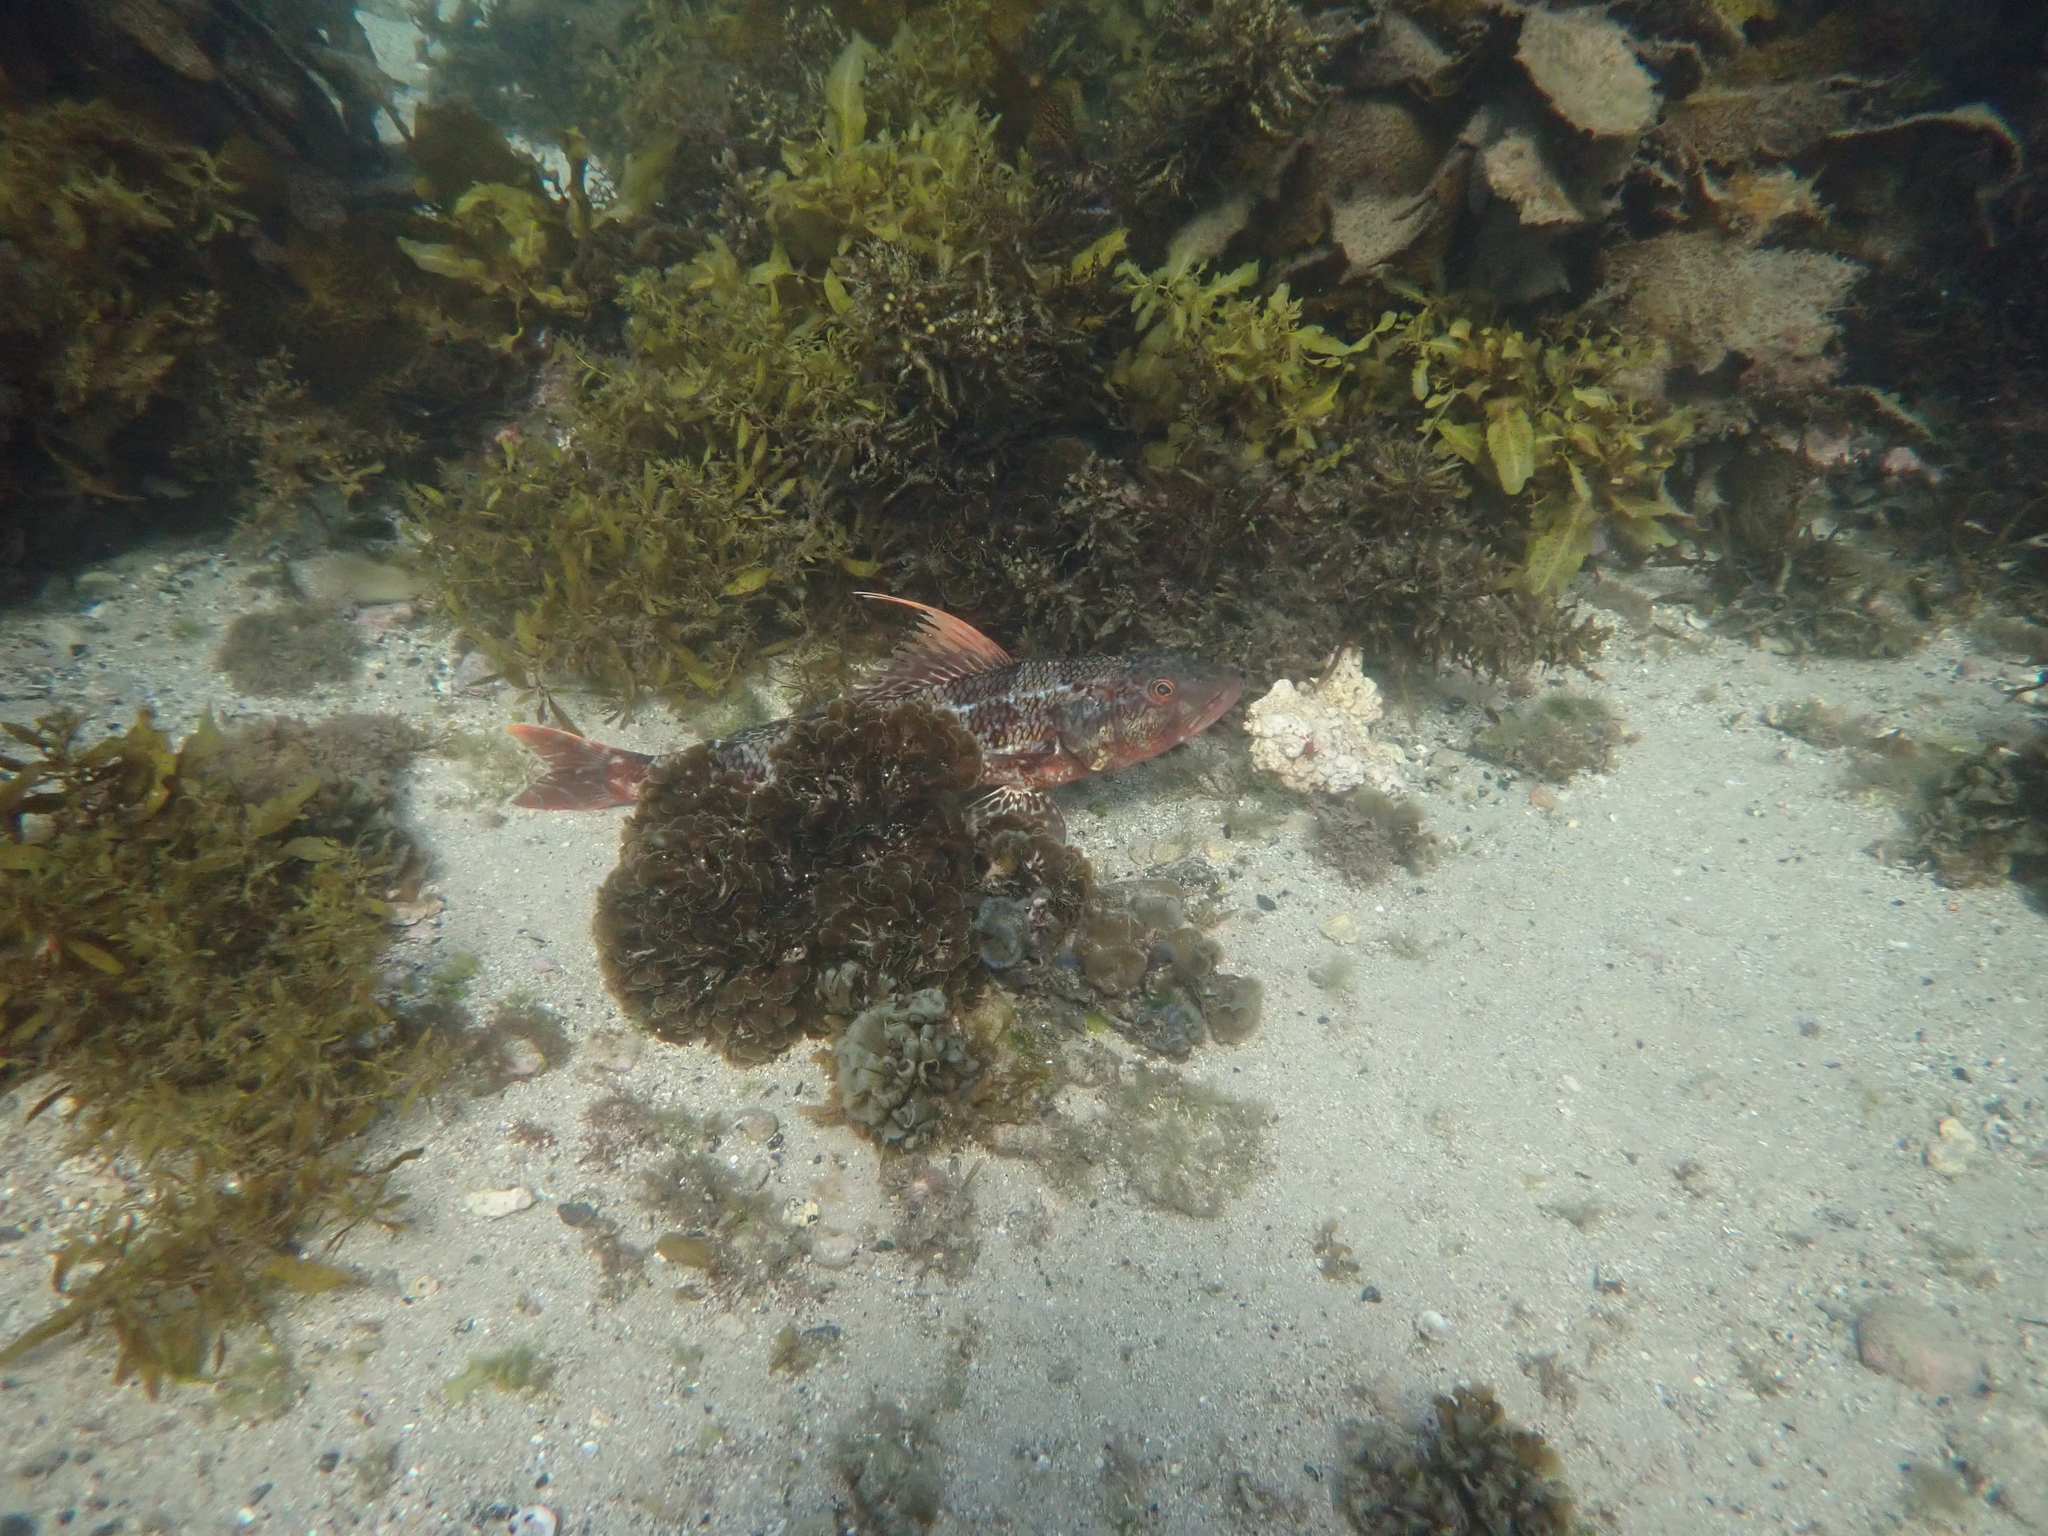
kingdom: Animalia
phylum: Chordata
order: Aulopiformes
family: Aulopidae
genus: Latropiscis
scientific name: Latropiscis purpurissatus
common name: Sergeant baker
